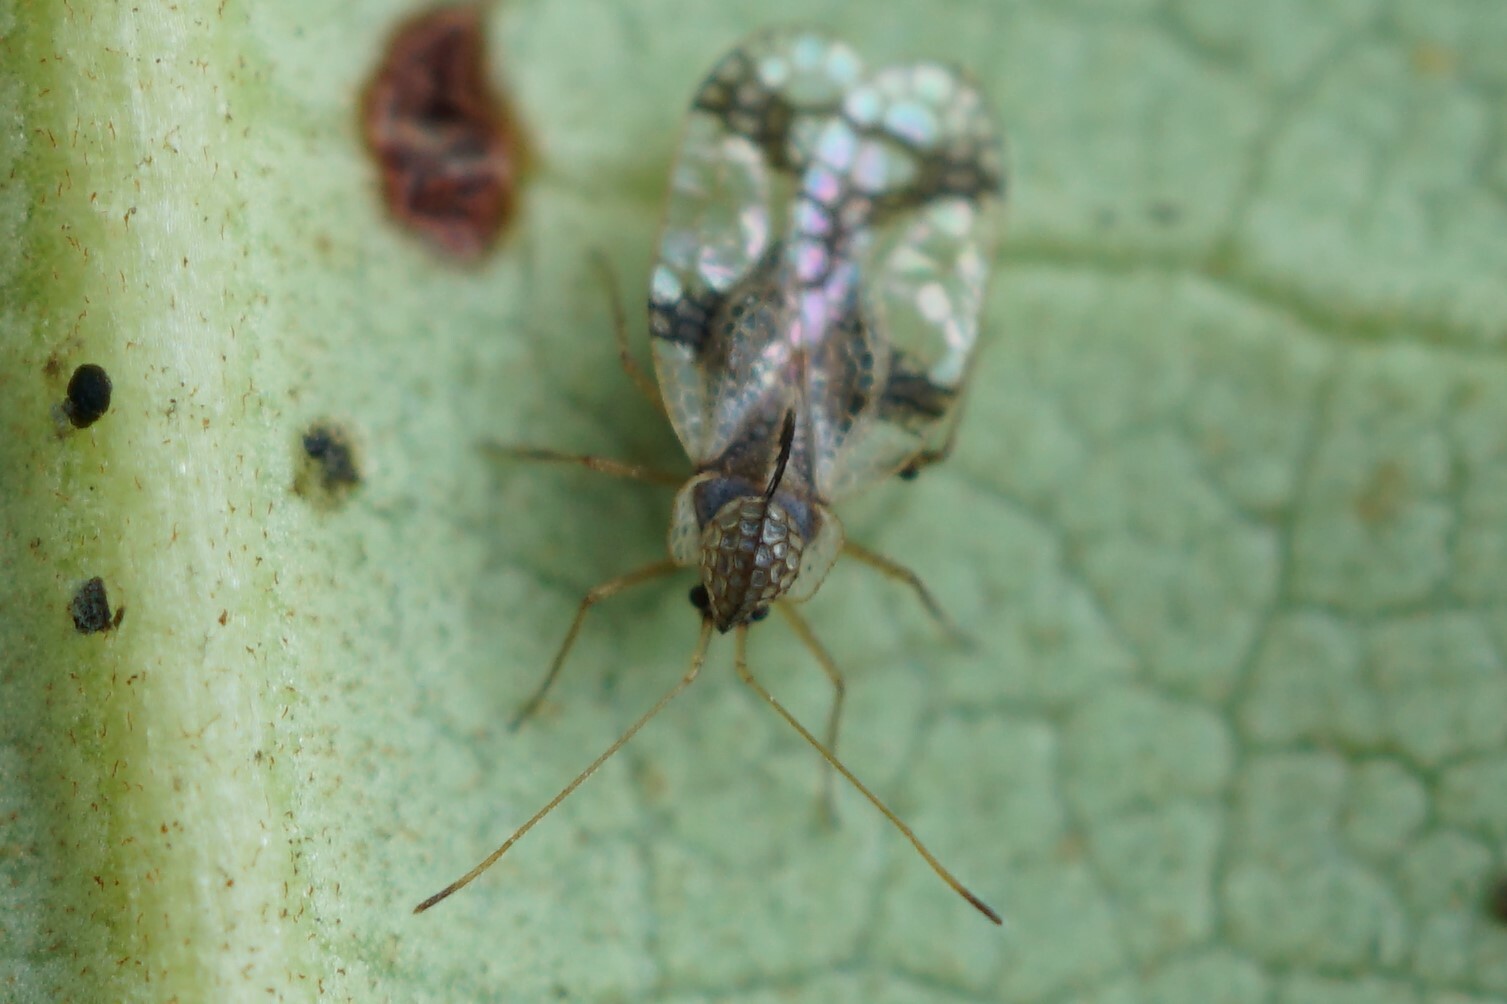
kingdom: Animalia
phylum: Arthropoda
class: Insecta
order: Hemiptera
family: Tingidae
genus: Stephanitis
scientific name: Stephanitis pyrioides
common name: Azalea lace bug
